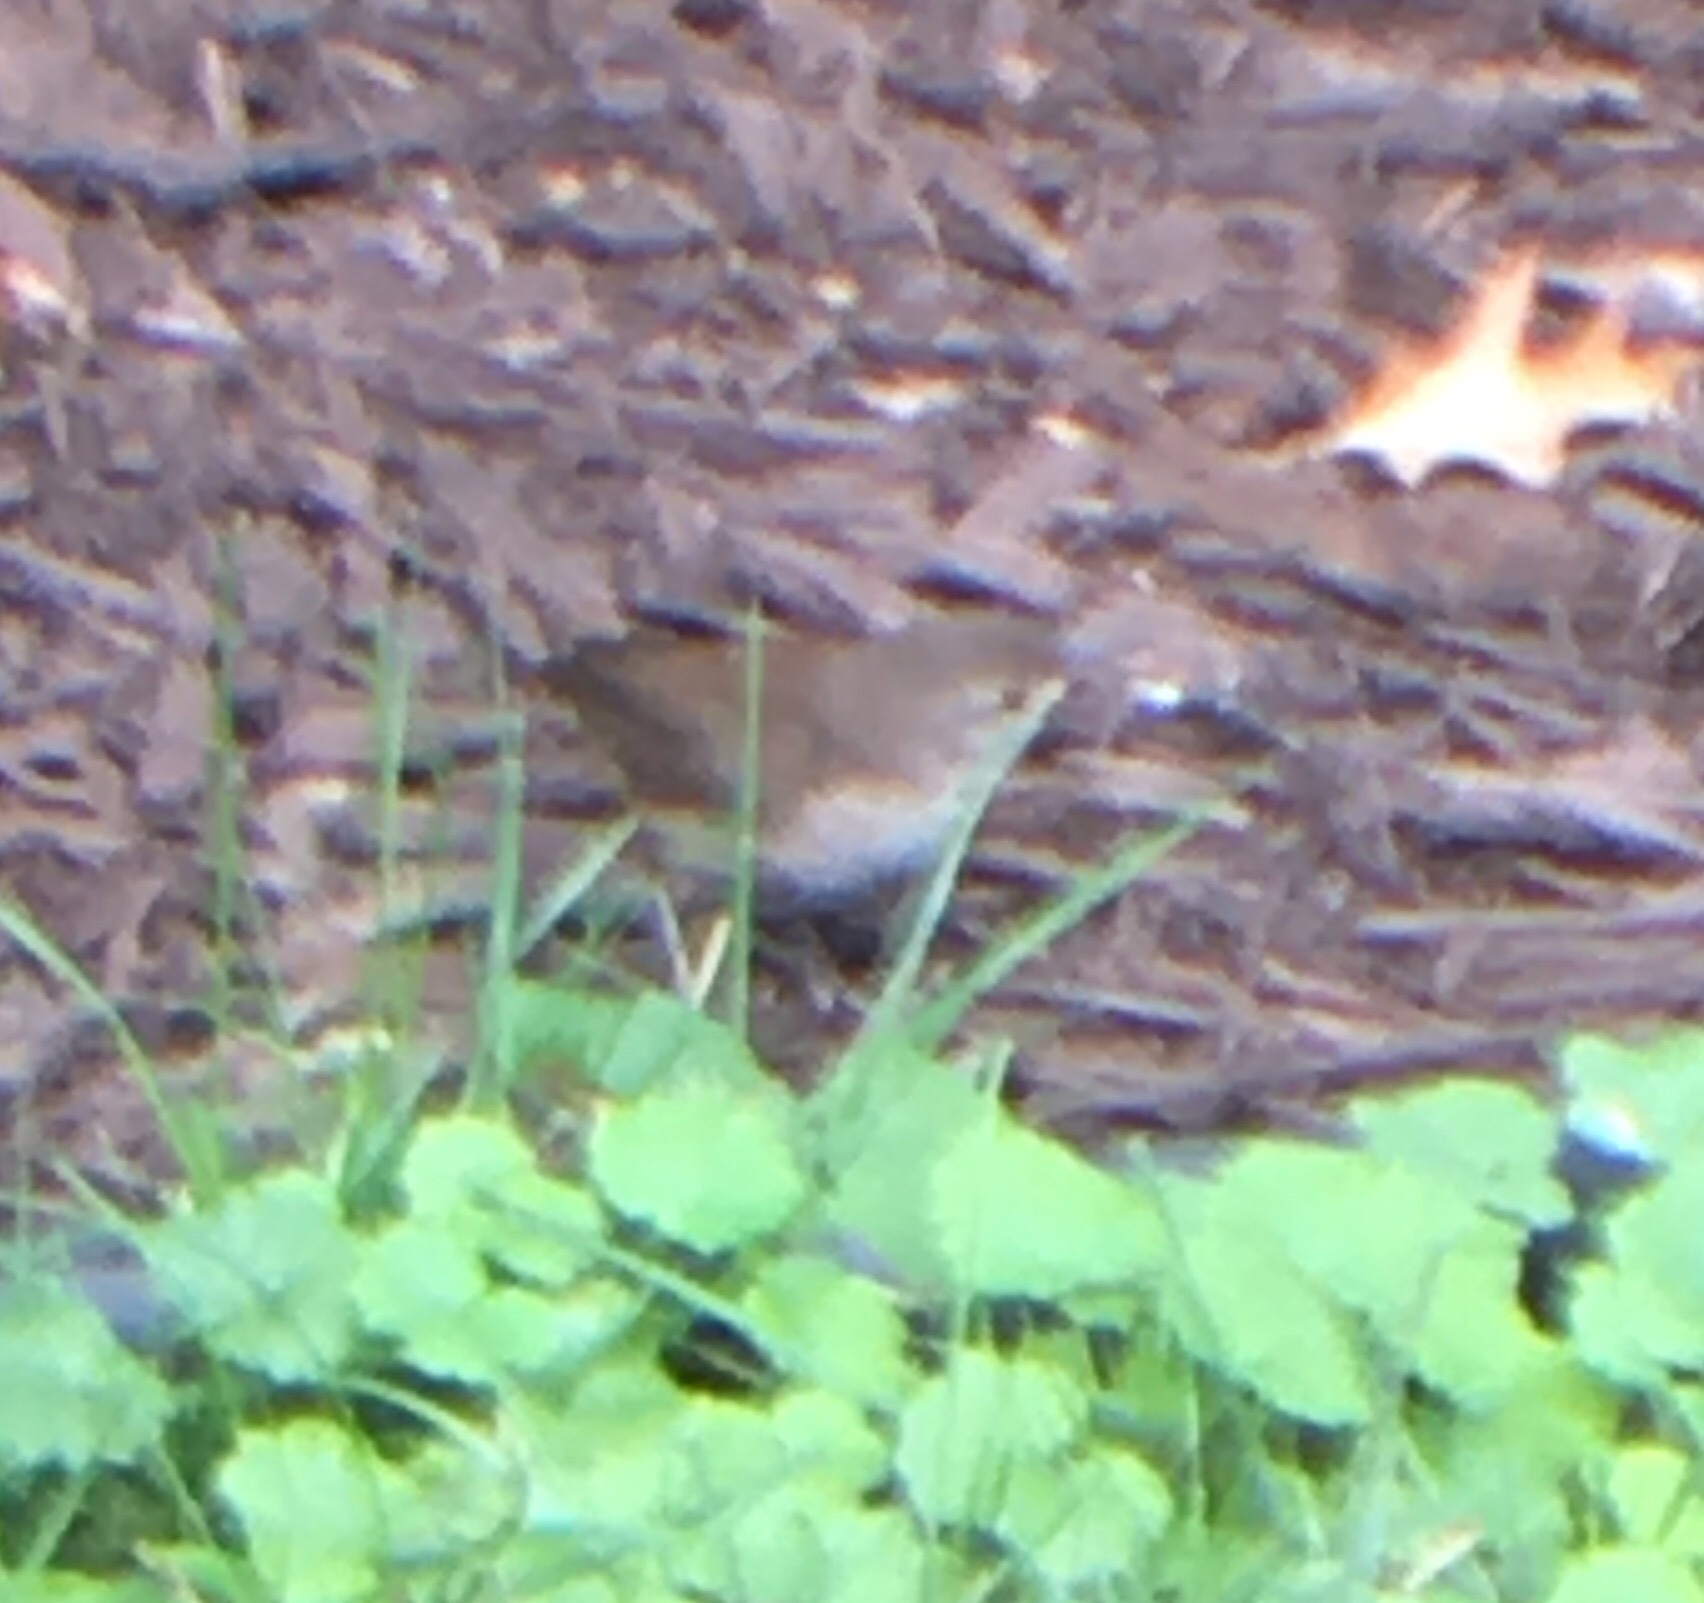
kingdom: Animalia
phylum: Chordata
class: Aves
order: Passeriformes
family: Troglodytidae
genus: Troglodytes
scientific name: Troglodytes aedon
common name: House wren
